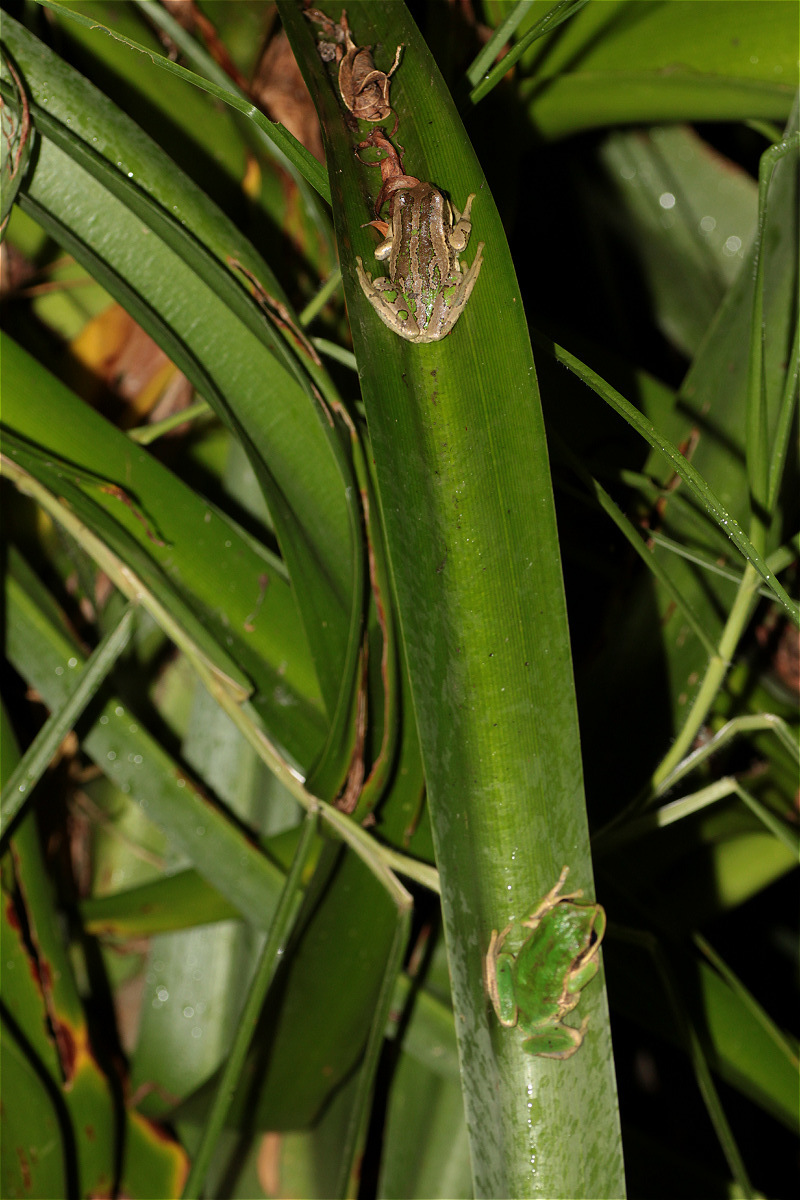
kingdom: Animalia
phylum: Chordata
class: Amphibia
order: Anura
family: Hemiphractidae
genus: Gastrotheca
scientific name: Gastrotheca cuencana
